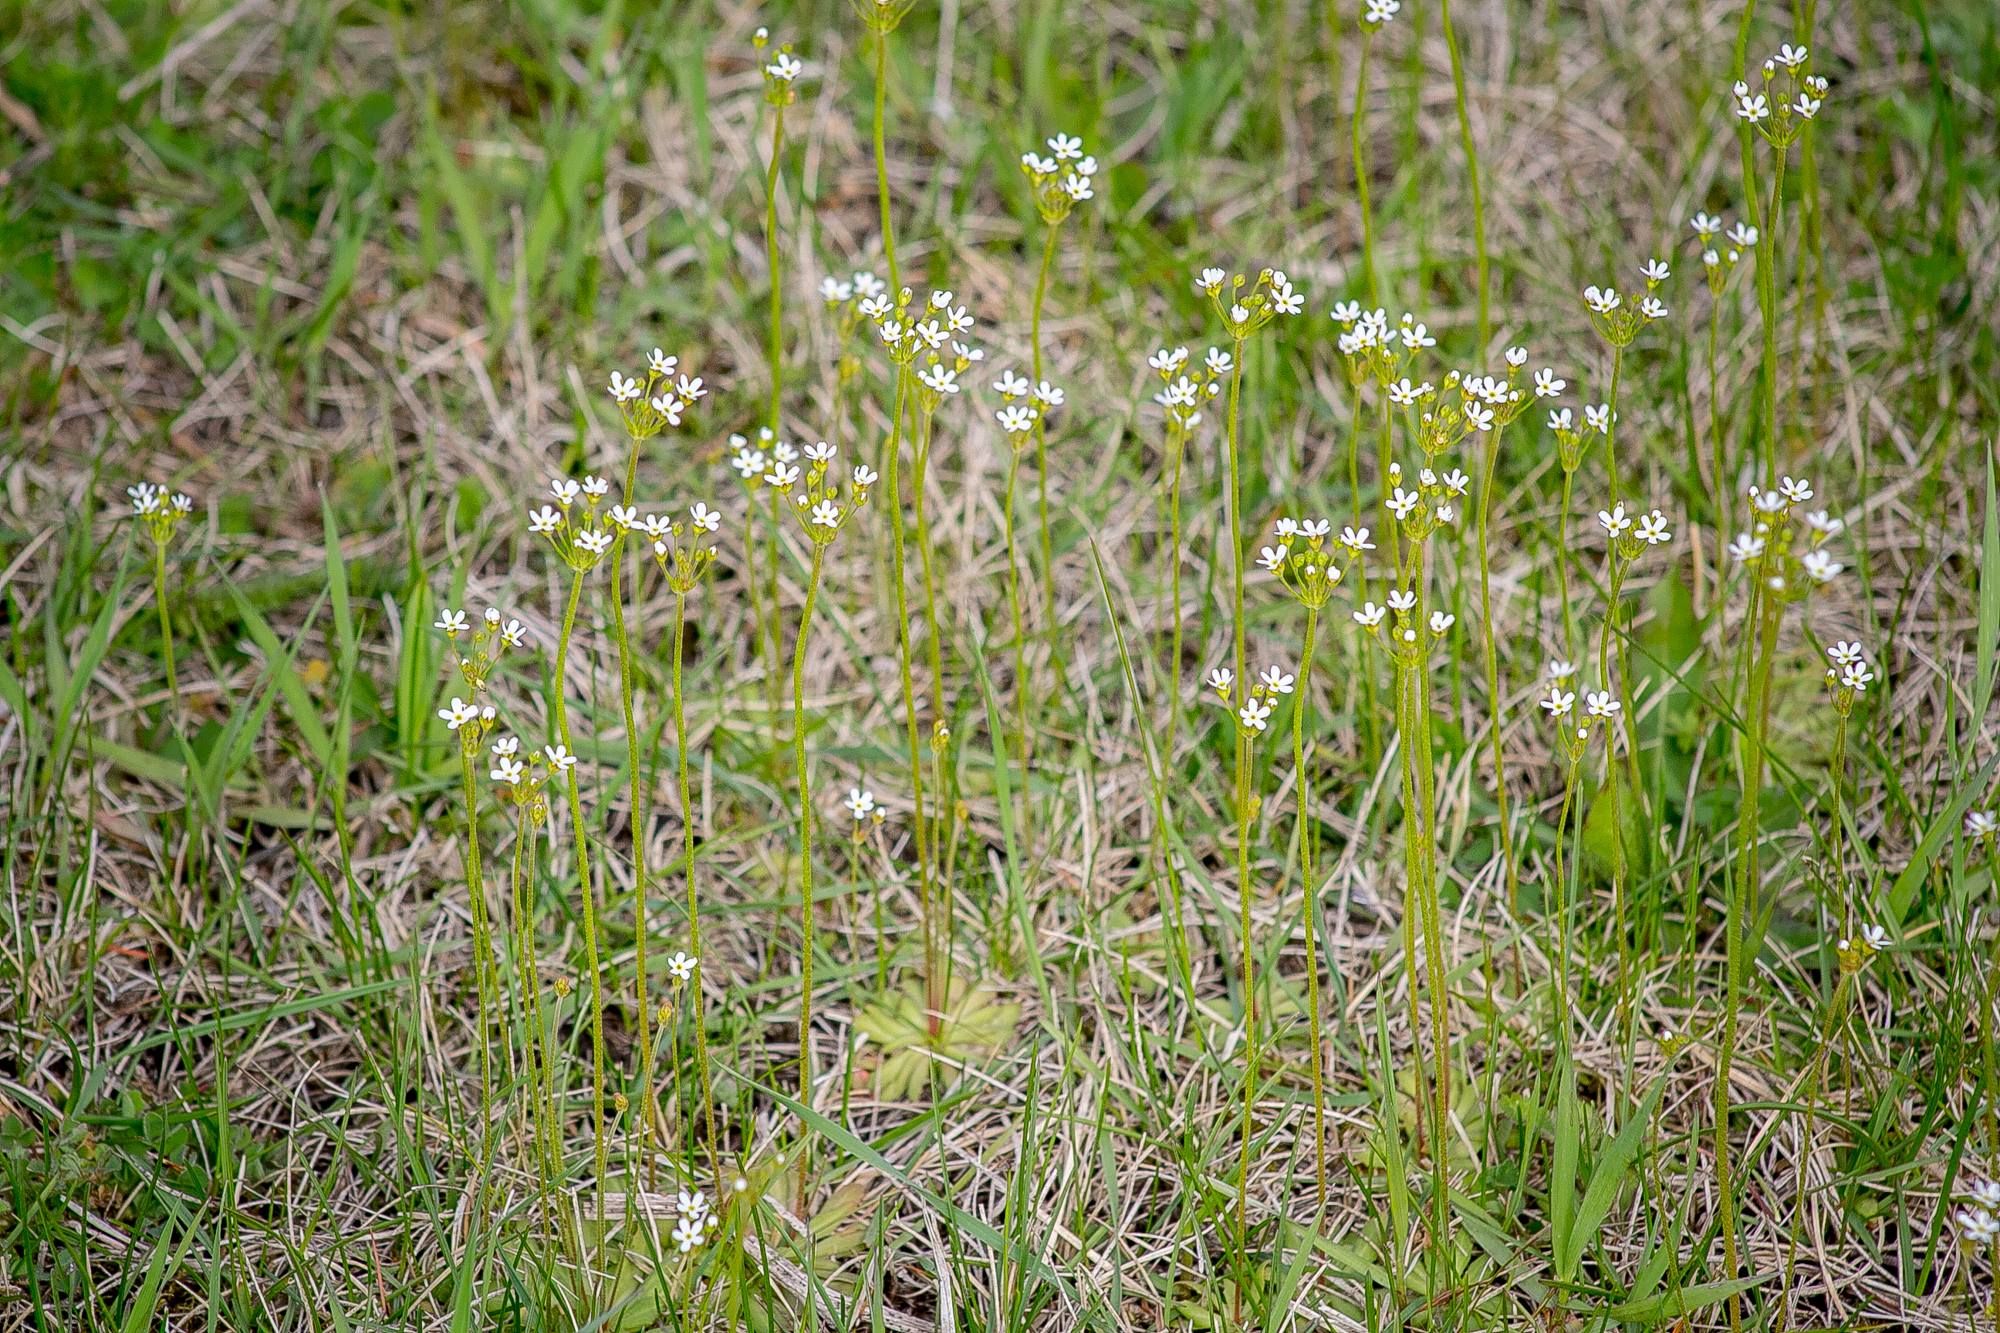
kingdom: Plantae
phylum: Tracheophyta
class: Magnoliopsida
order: Ericales
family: Primulaceae
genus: Androsace
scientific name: Androsace septentrionalis
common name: Hairy northern fairy-candelabra
